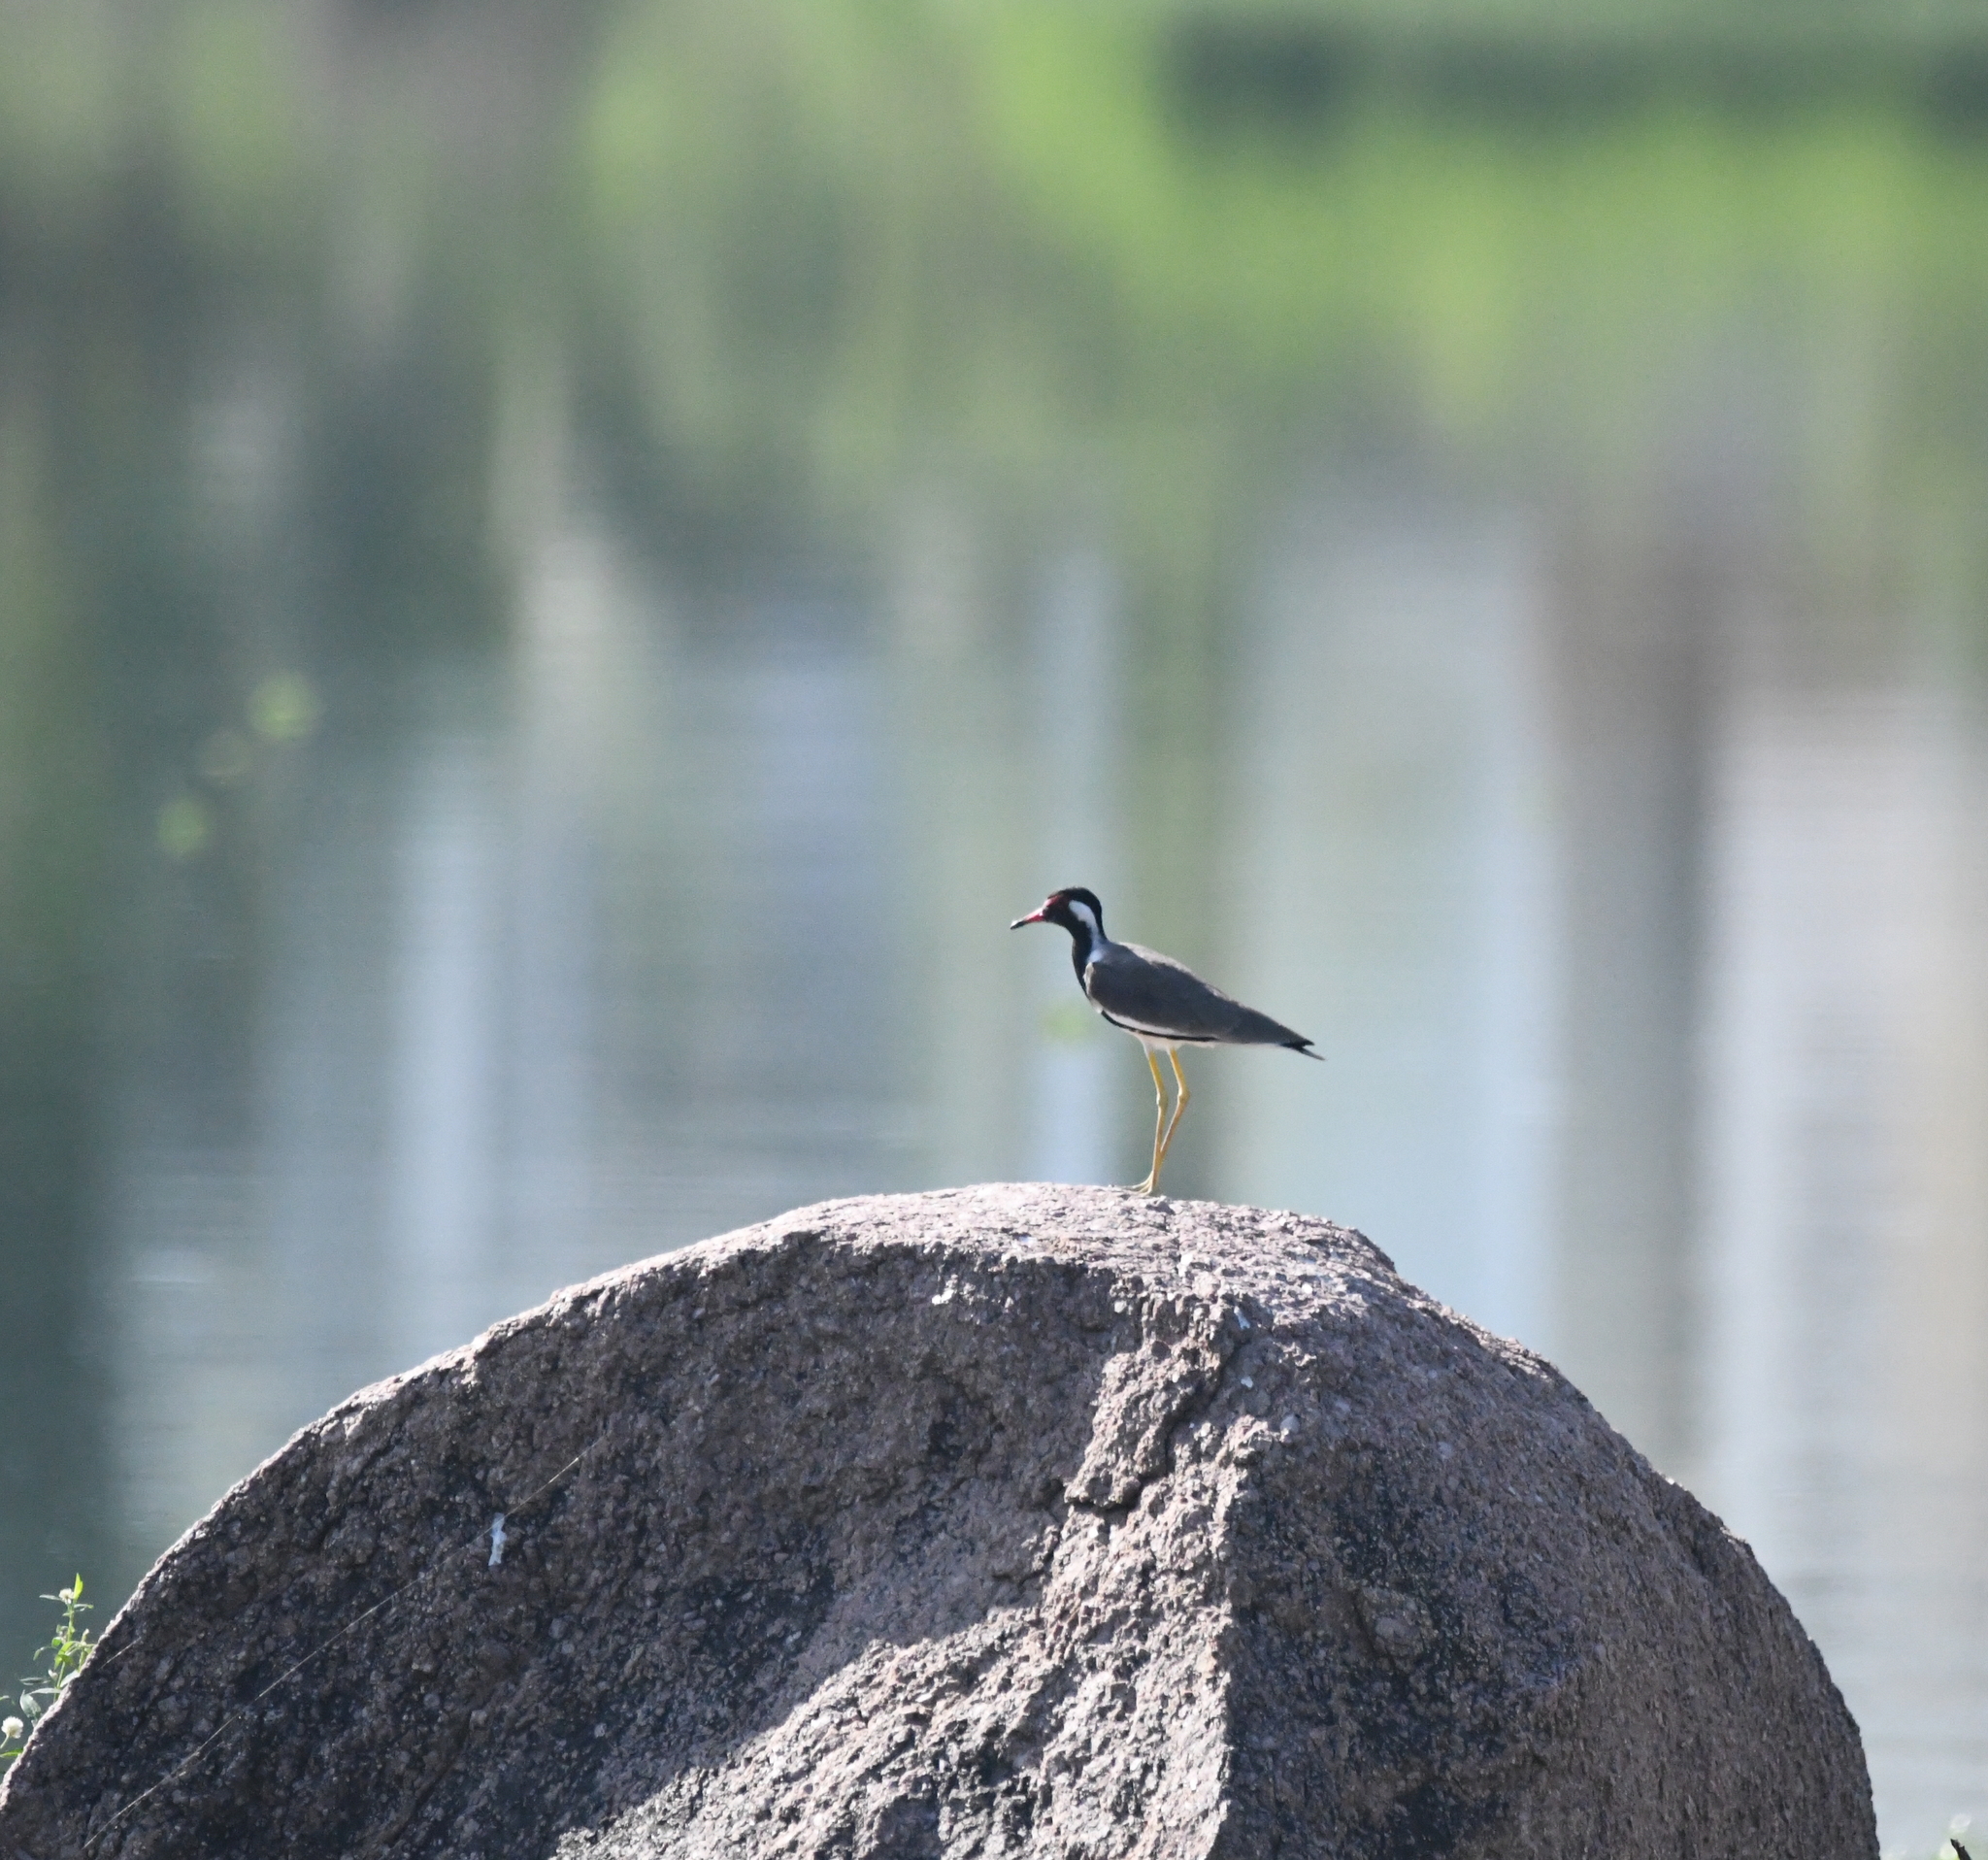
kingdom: Animalia
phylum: Chordata
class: Aves
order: Charadriiformes
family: Charadriidae
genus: Vanellus
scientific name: Vanellus indicus
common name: Red-wattled lapwing
